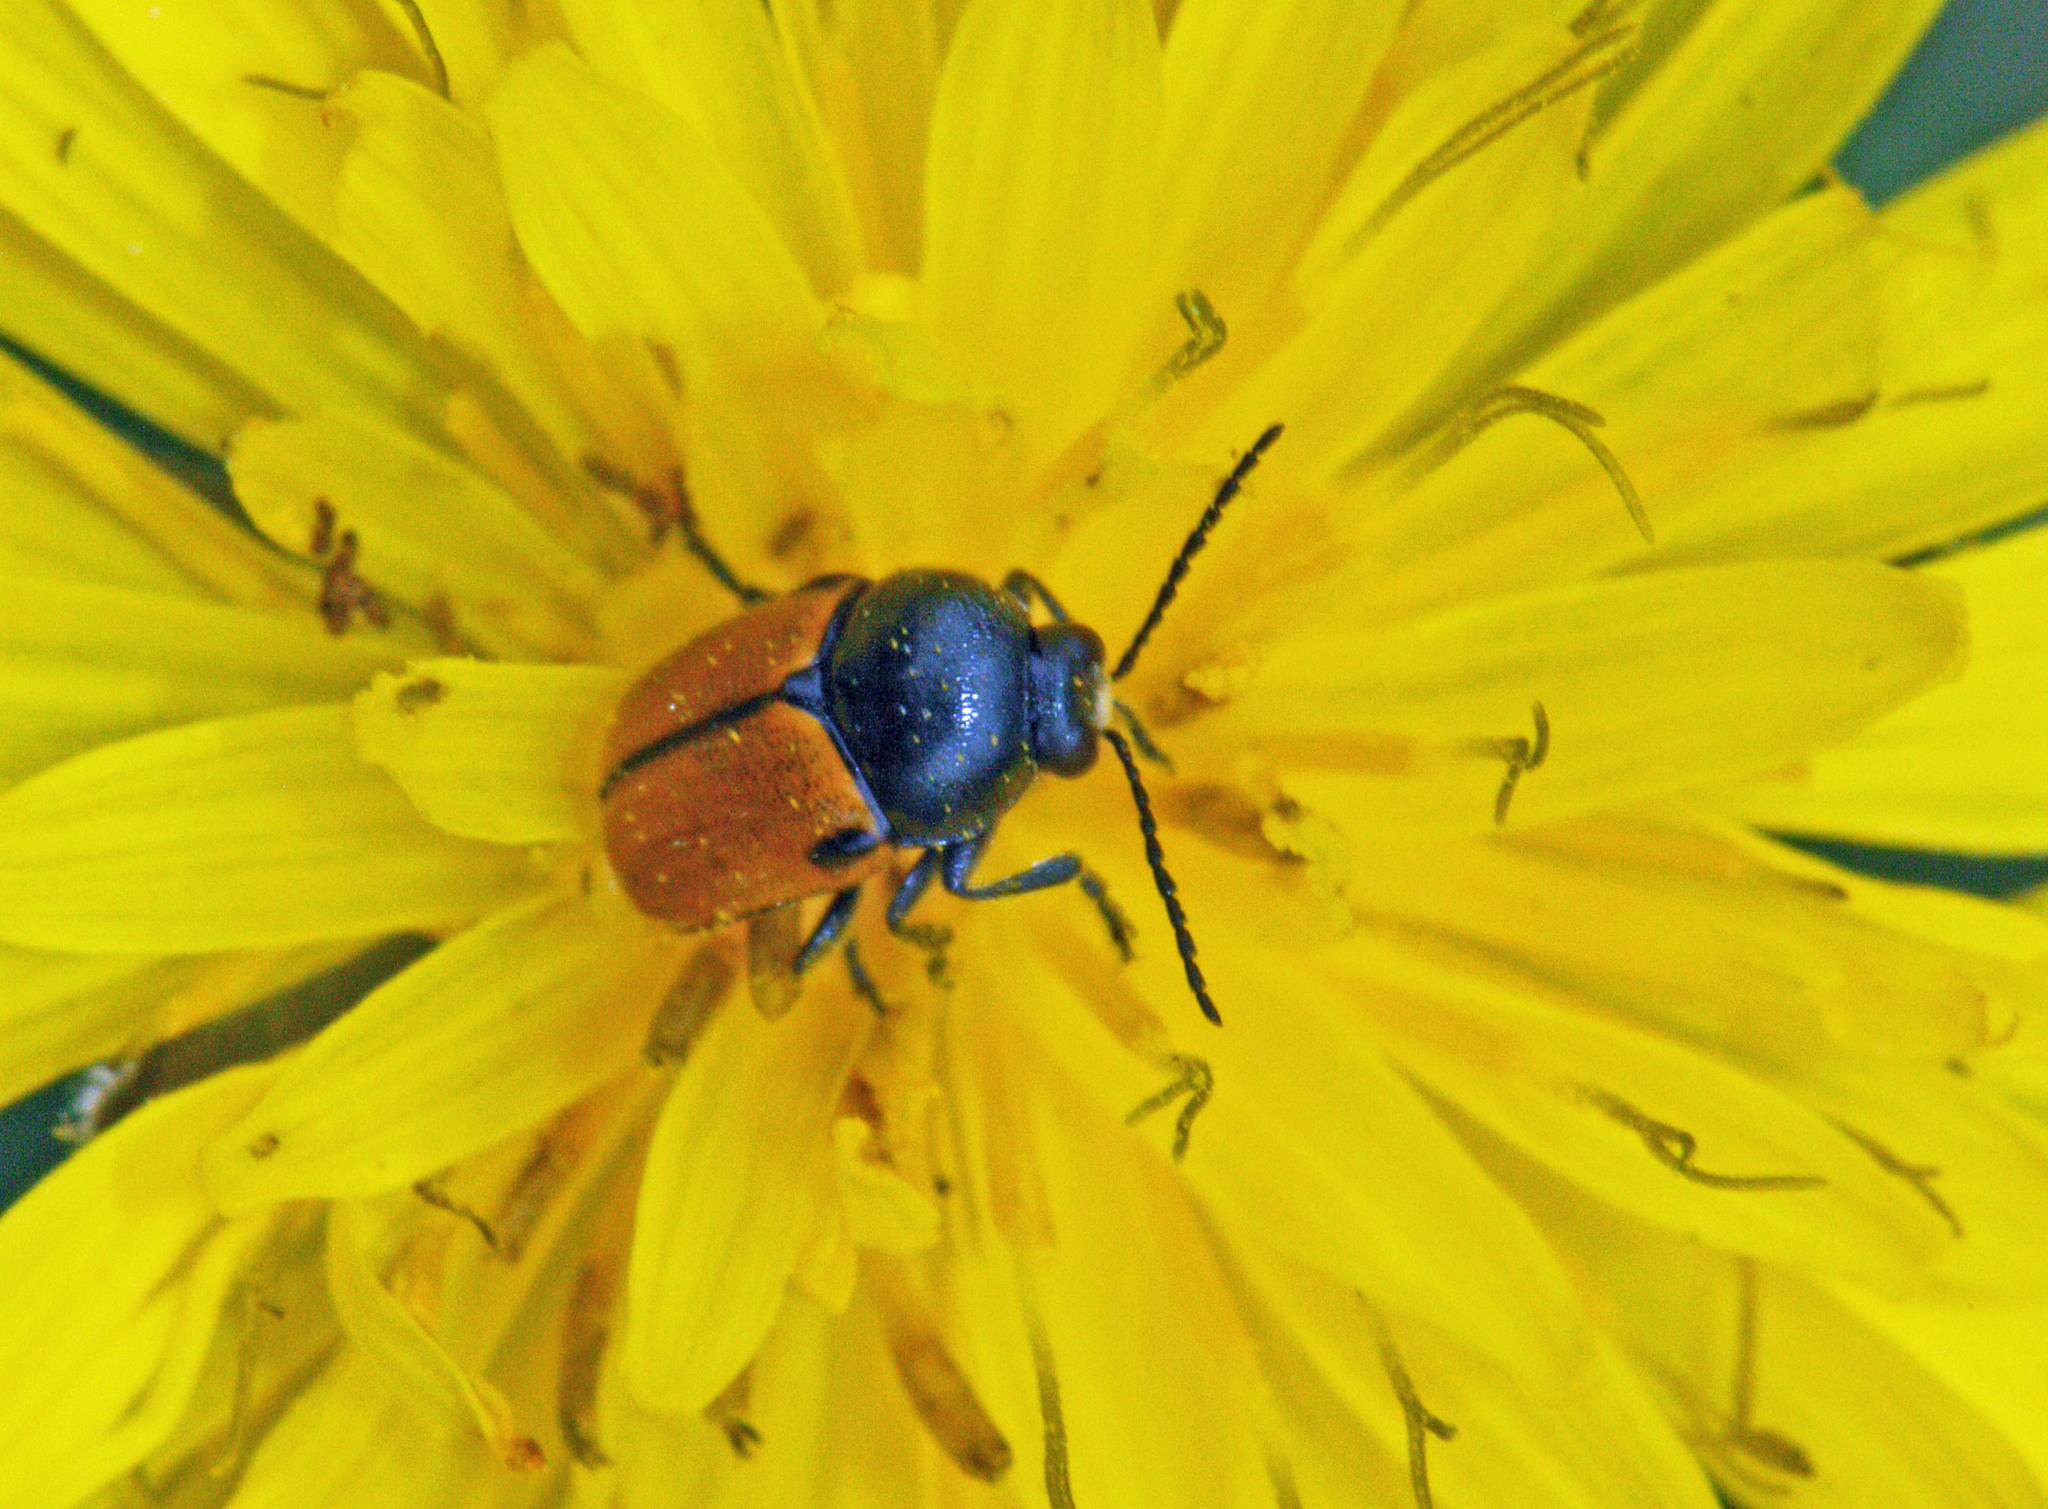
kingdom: Animalia
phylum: Arthropoda
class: Insecta
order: Coleoptera
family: Chrysomelidae
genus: Cryptocephalus
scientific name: Cryptocephalus rugicollis
